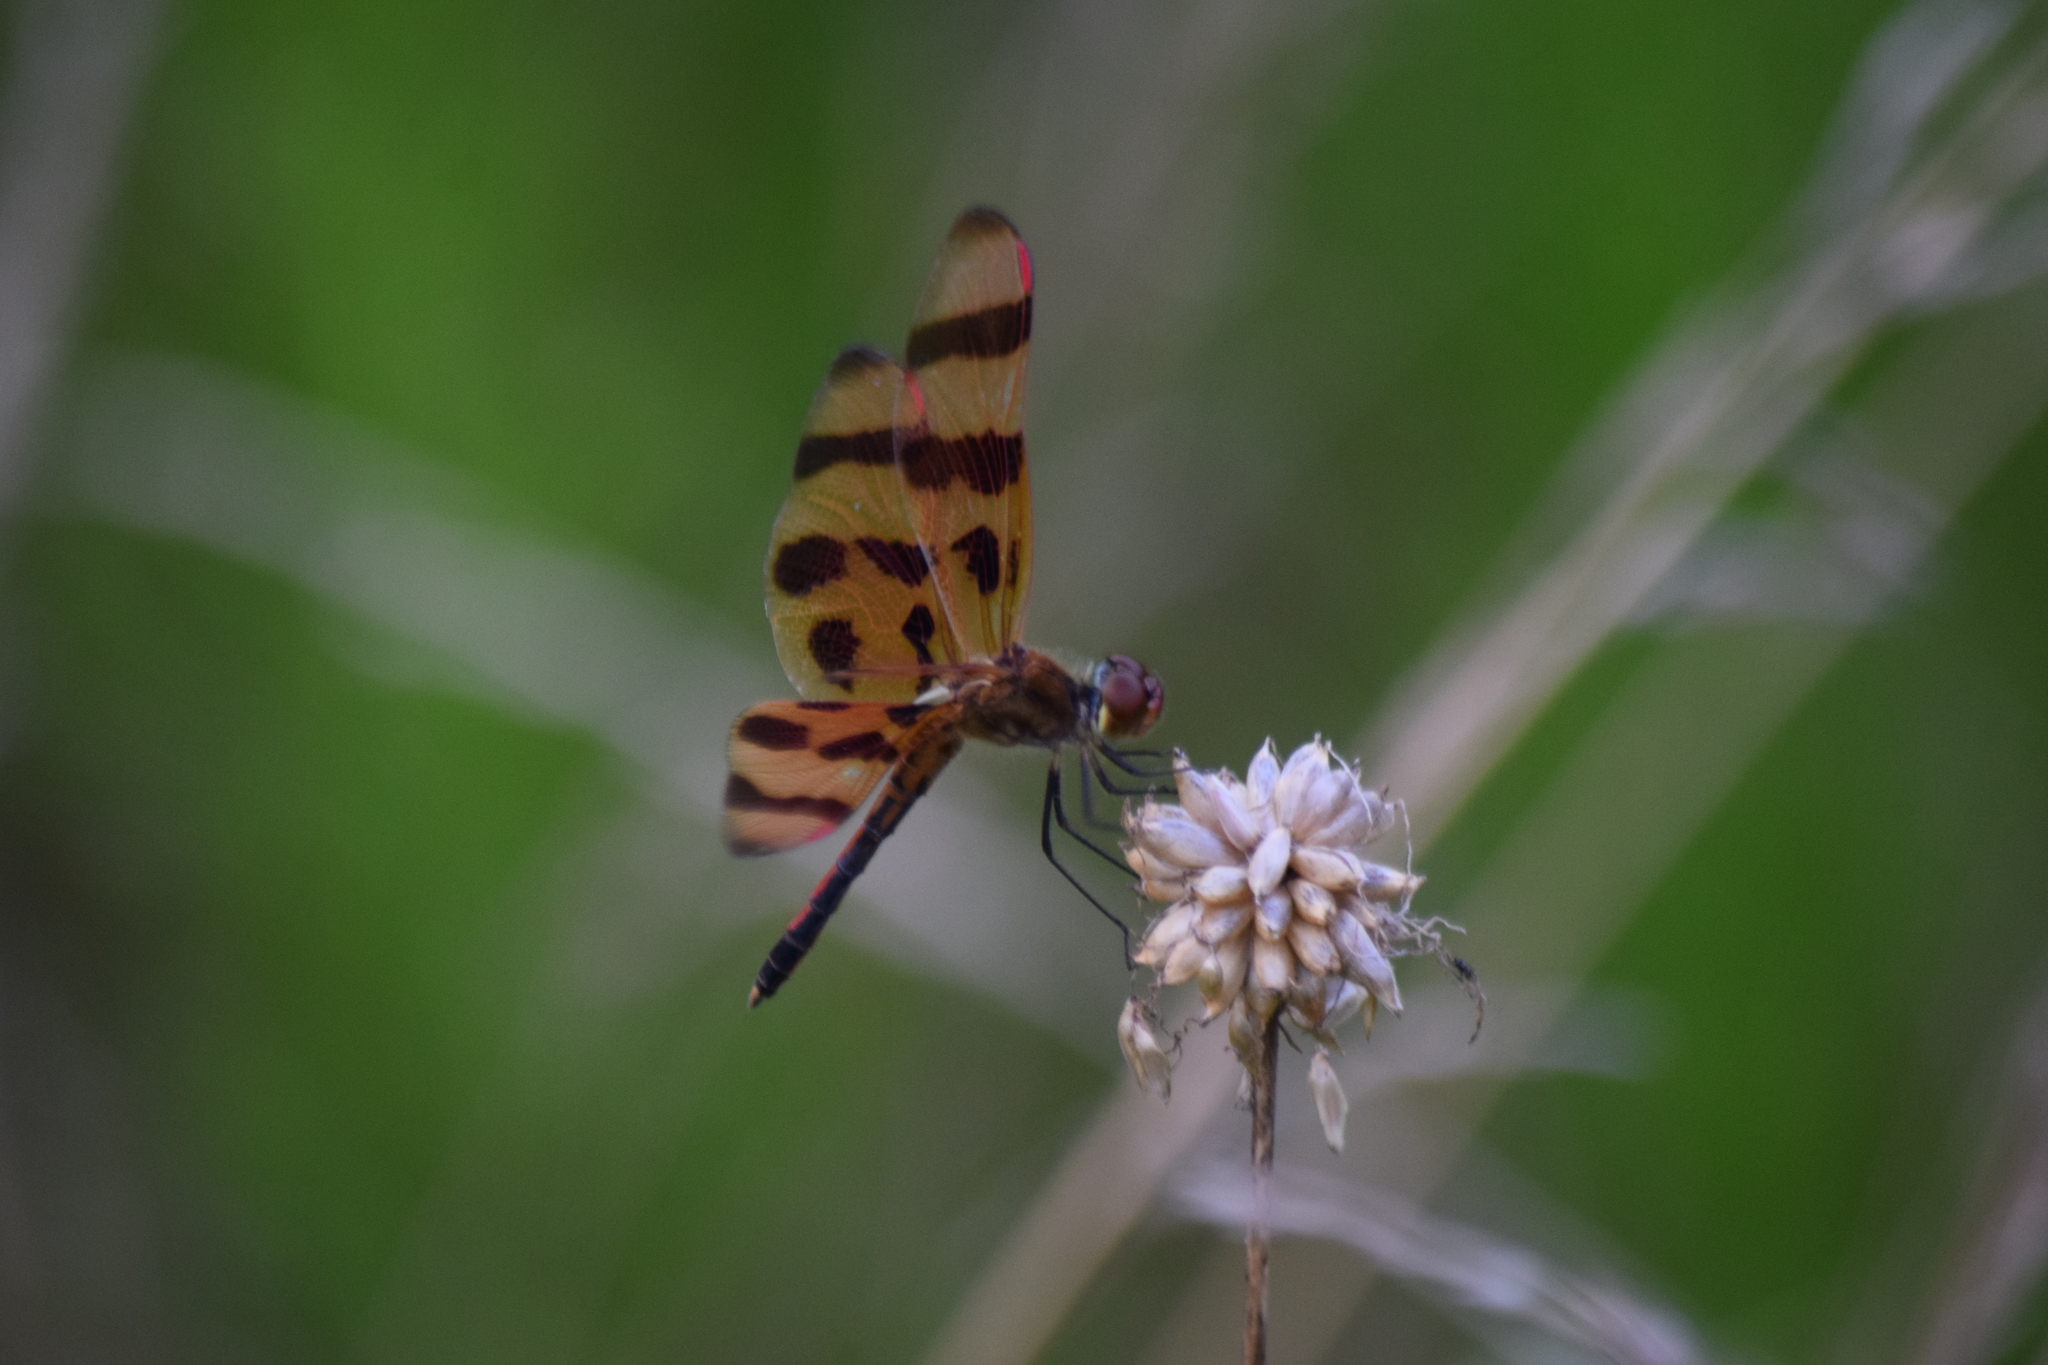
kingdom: Animalia
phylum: Arthropoda
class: Insecta
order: Odonata
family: Libellulidae
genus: Celithemis
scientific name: Celithemis eponina
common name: Halloween pennant
